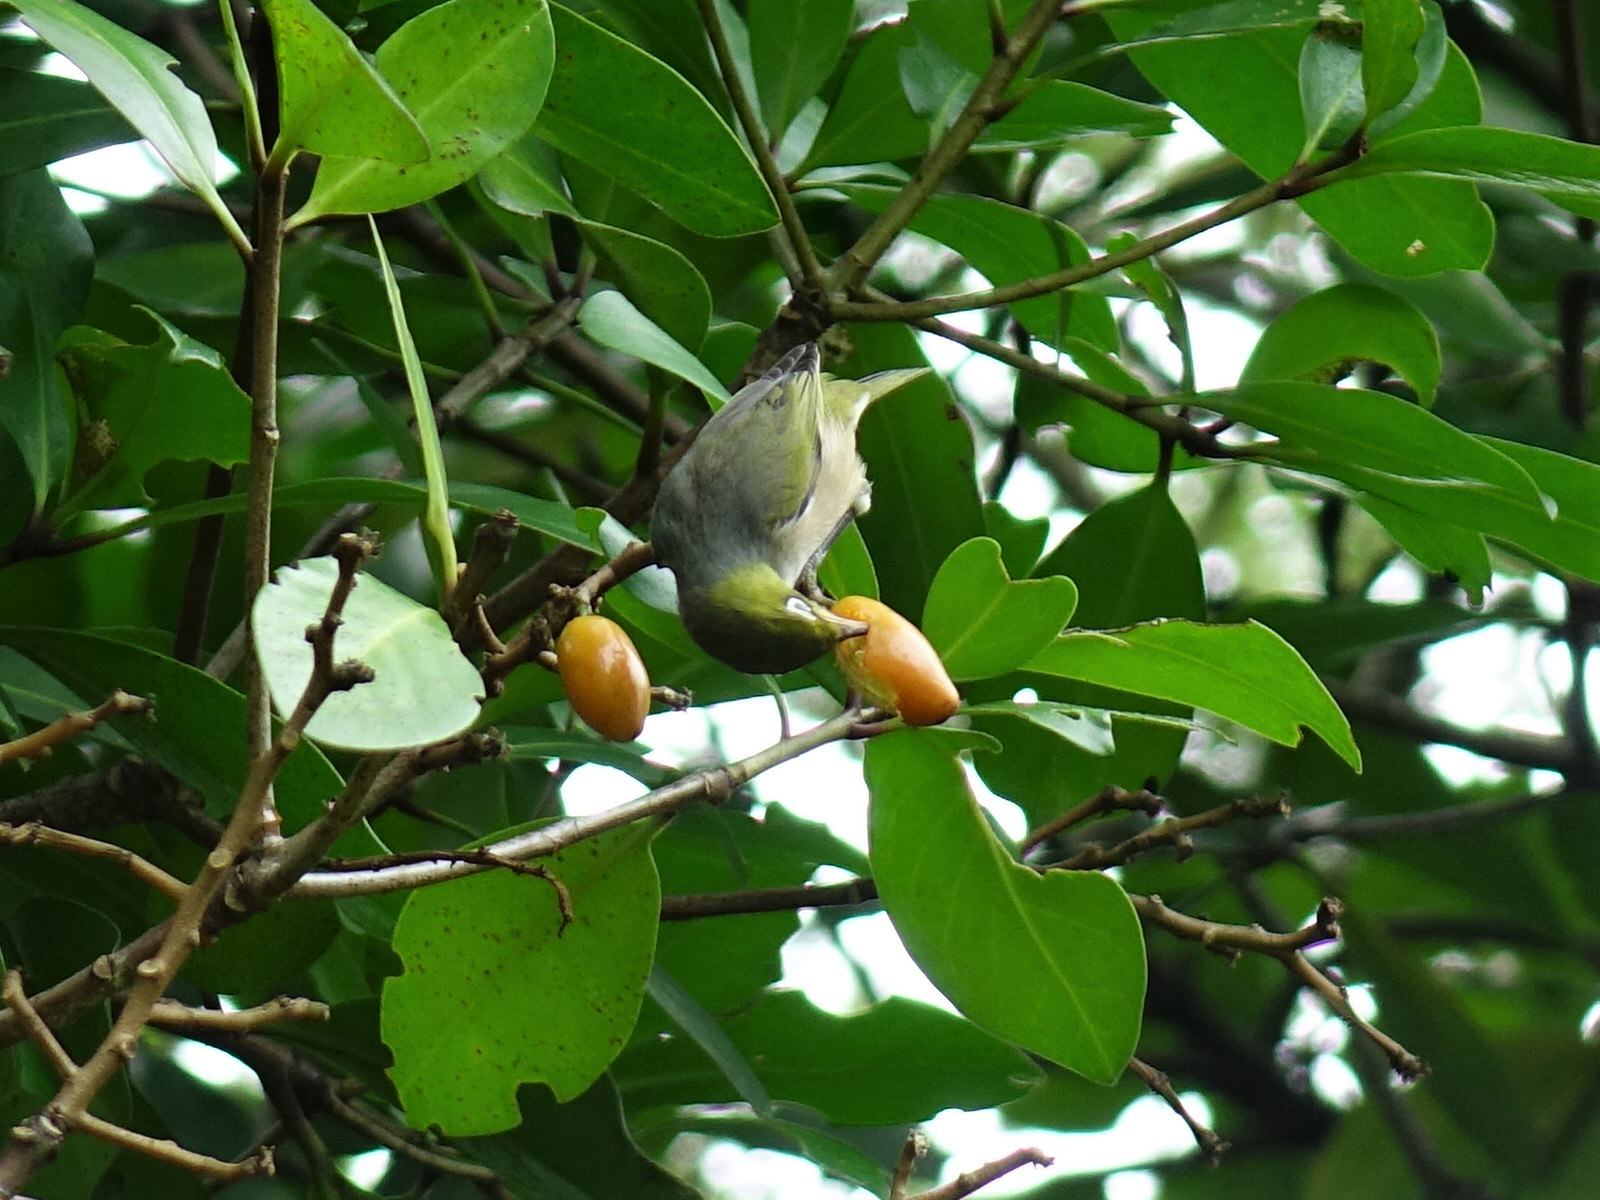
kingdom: Animalia
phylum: Chordata
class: Aves
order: Passeriformes
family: Zosteropidae
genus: Zosterops
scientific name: Zosterops lateralis
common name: Silvereye
